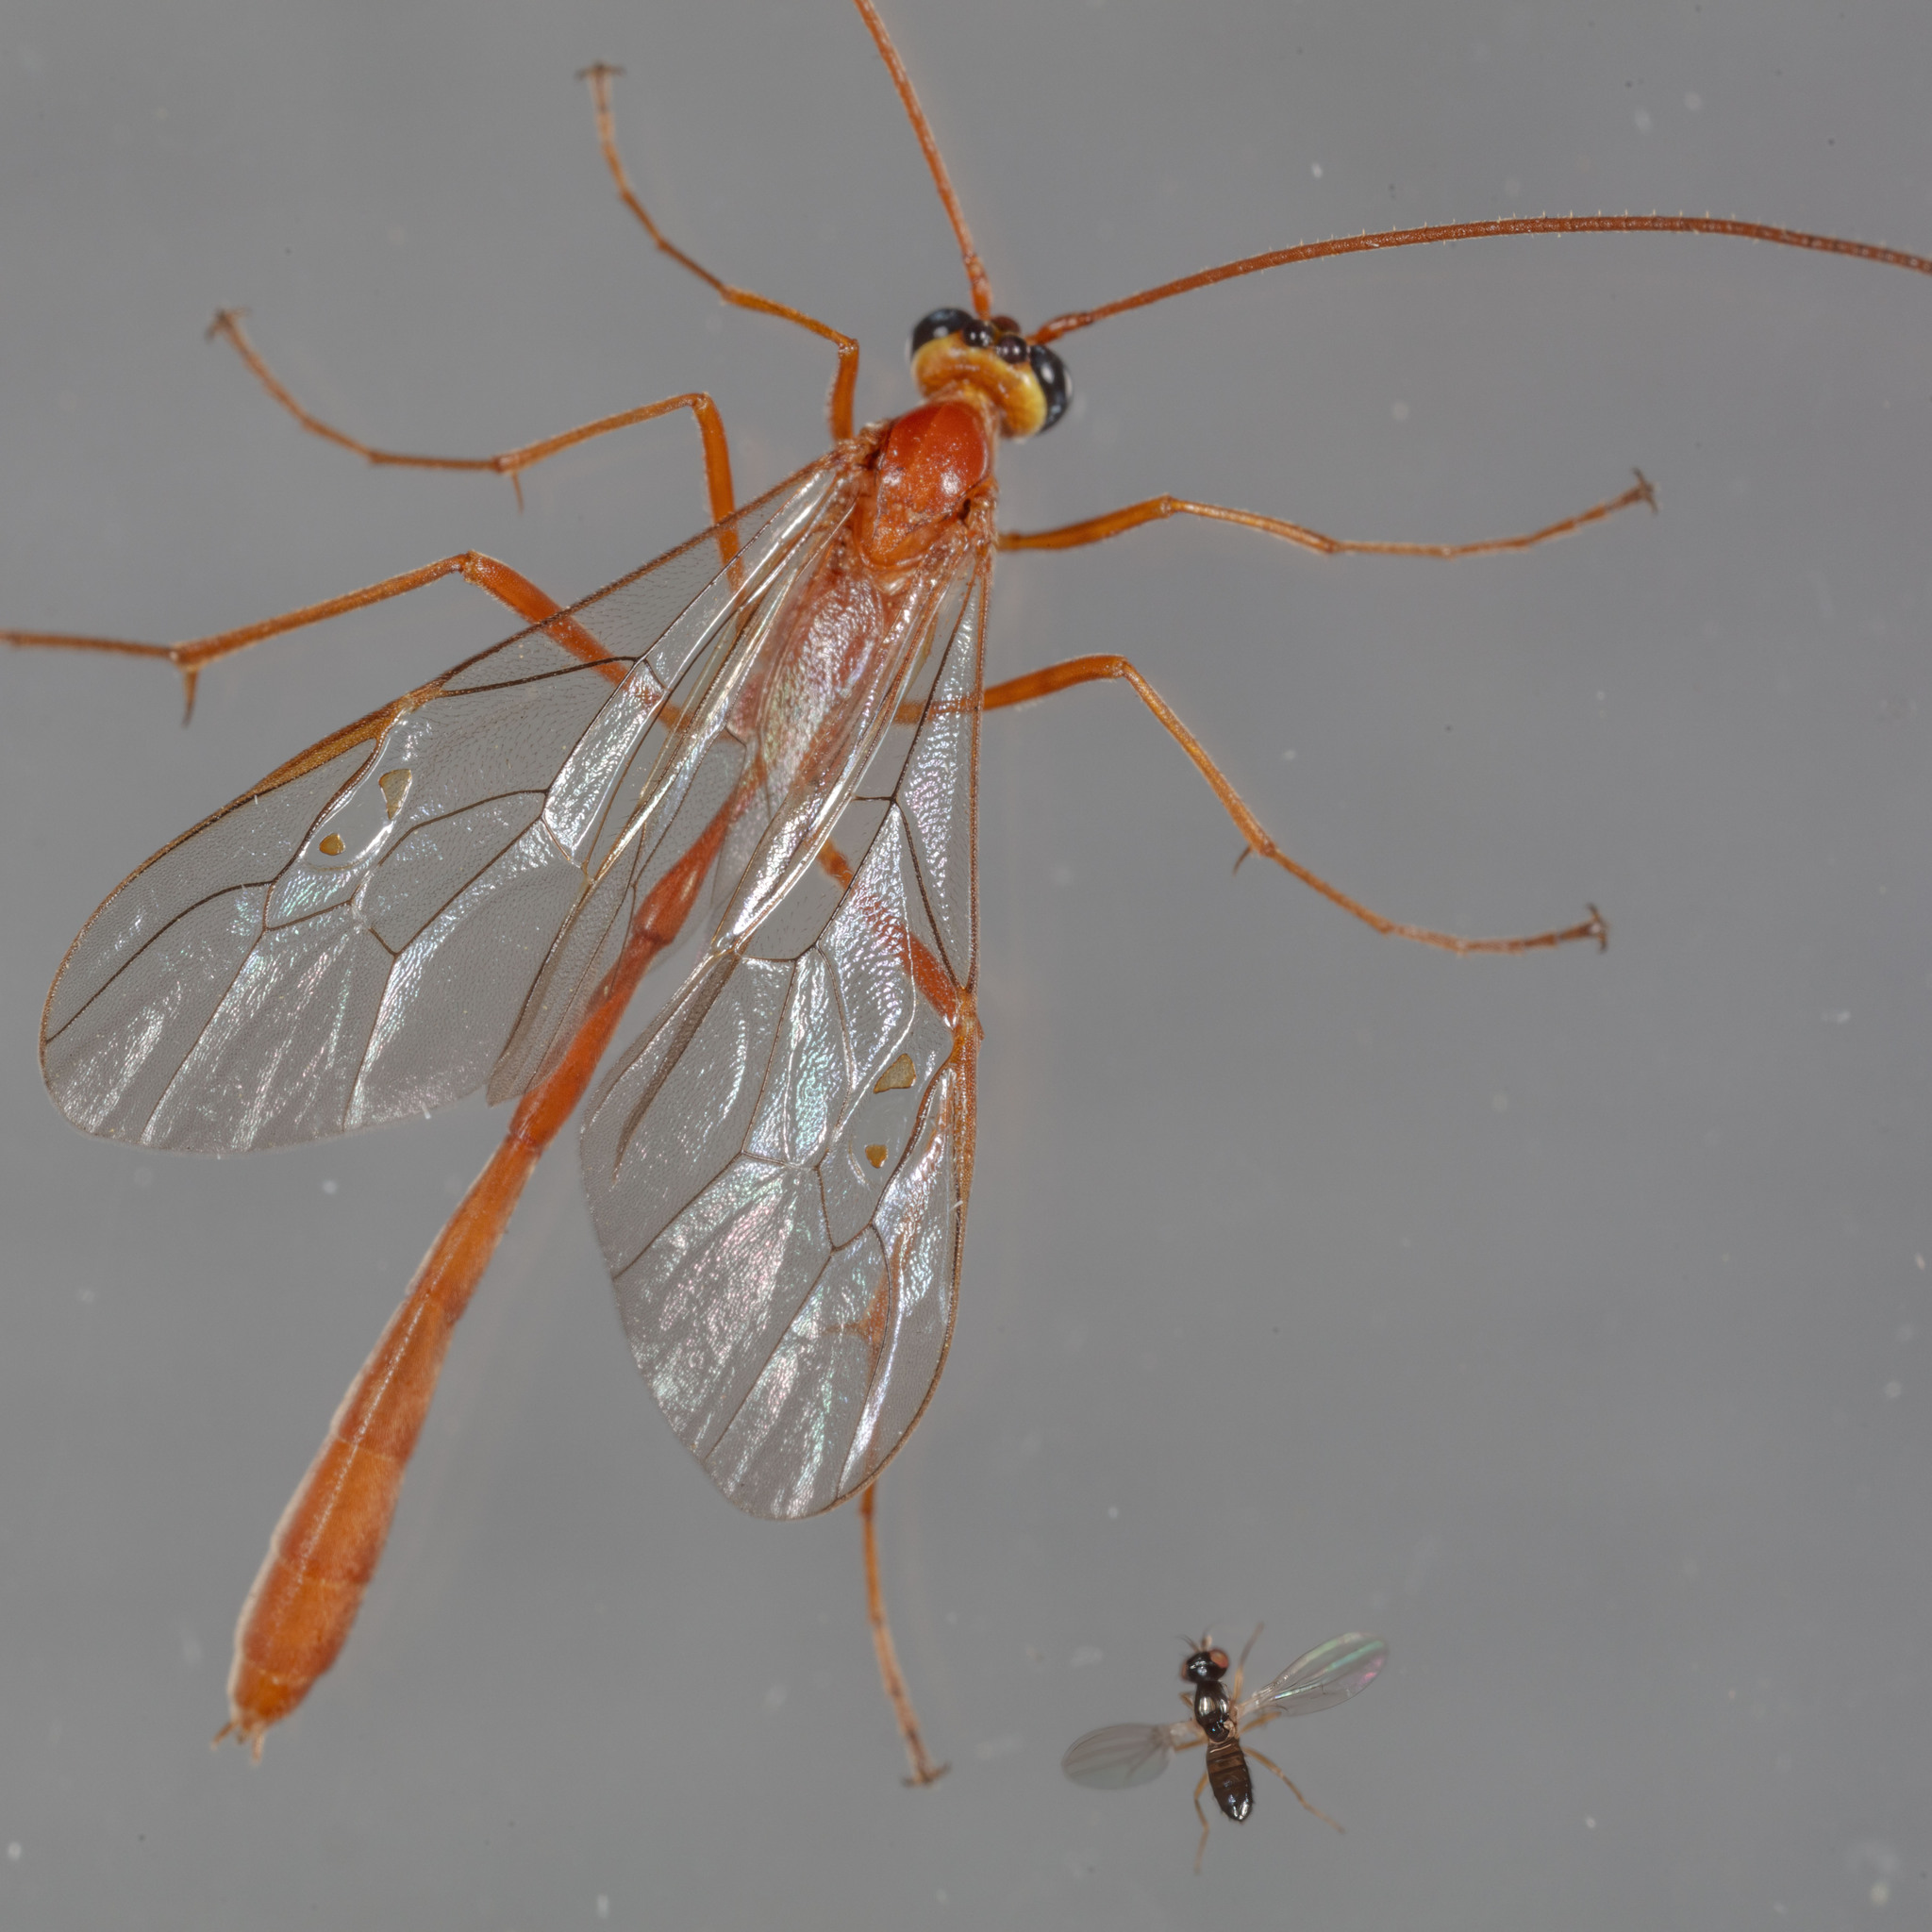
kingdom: Animalia
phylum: Arthropoda
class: Insecta
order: Hymenoptera
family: Ichneumonidae
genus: Enicospilus
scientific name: Enicospilus purgatus
